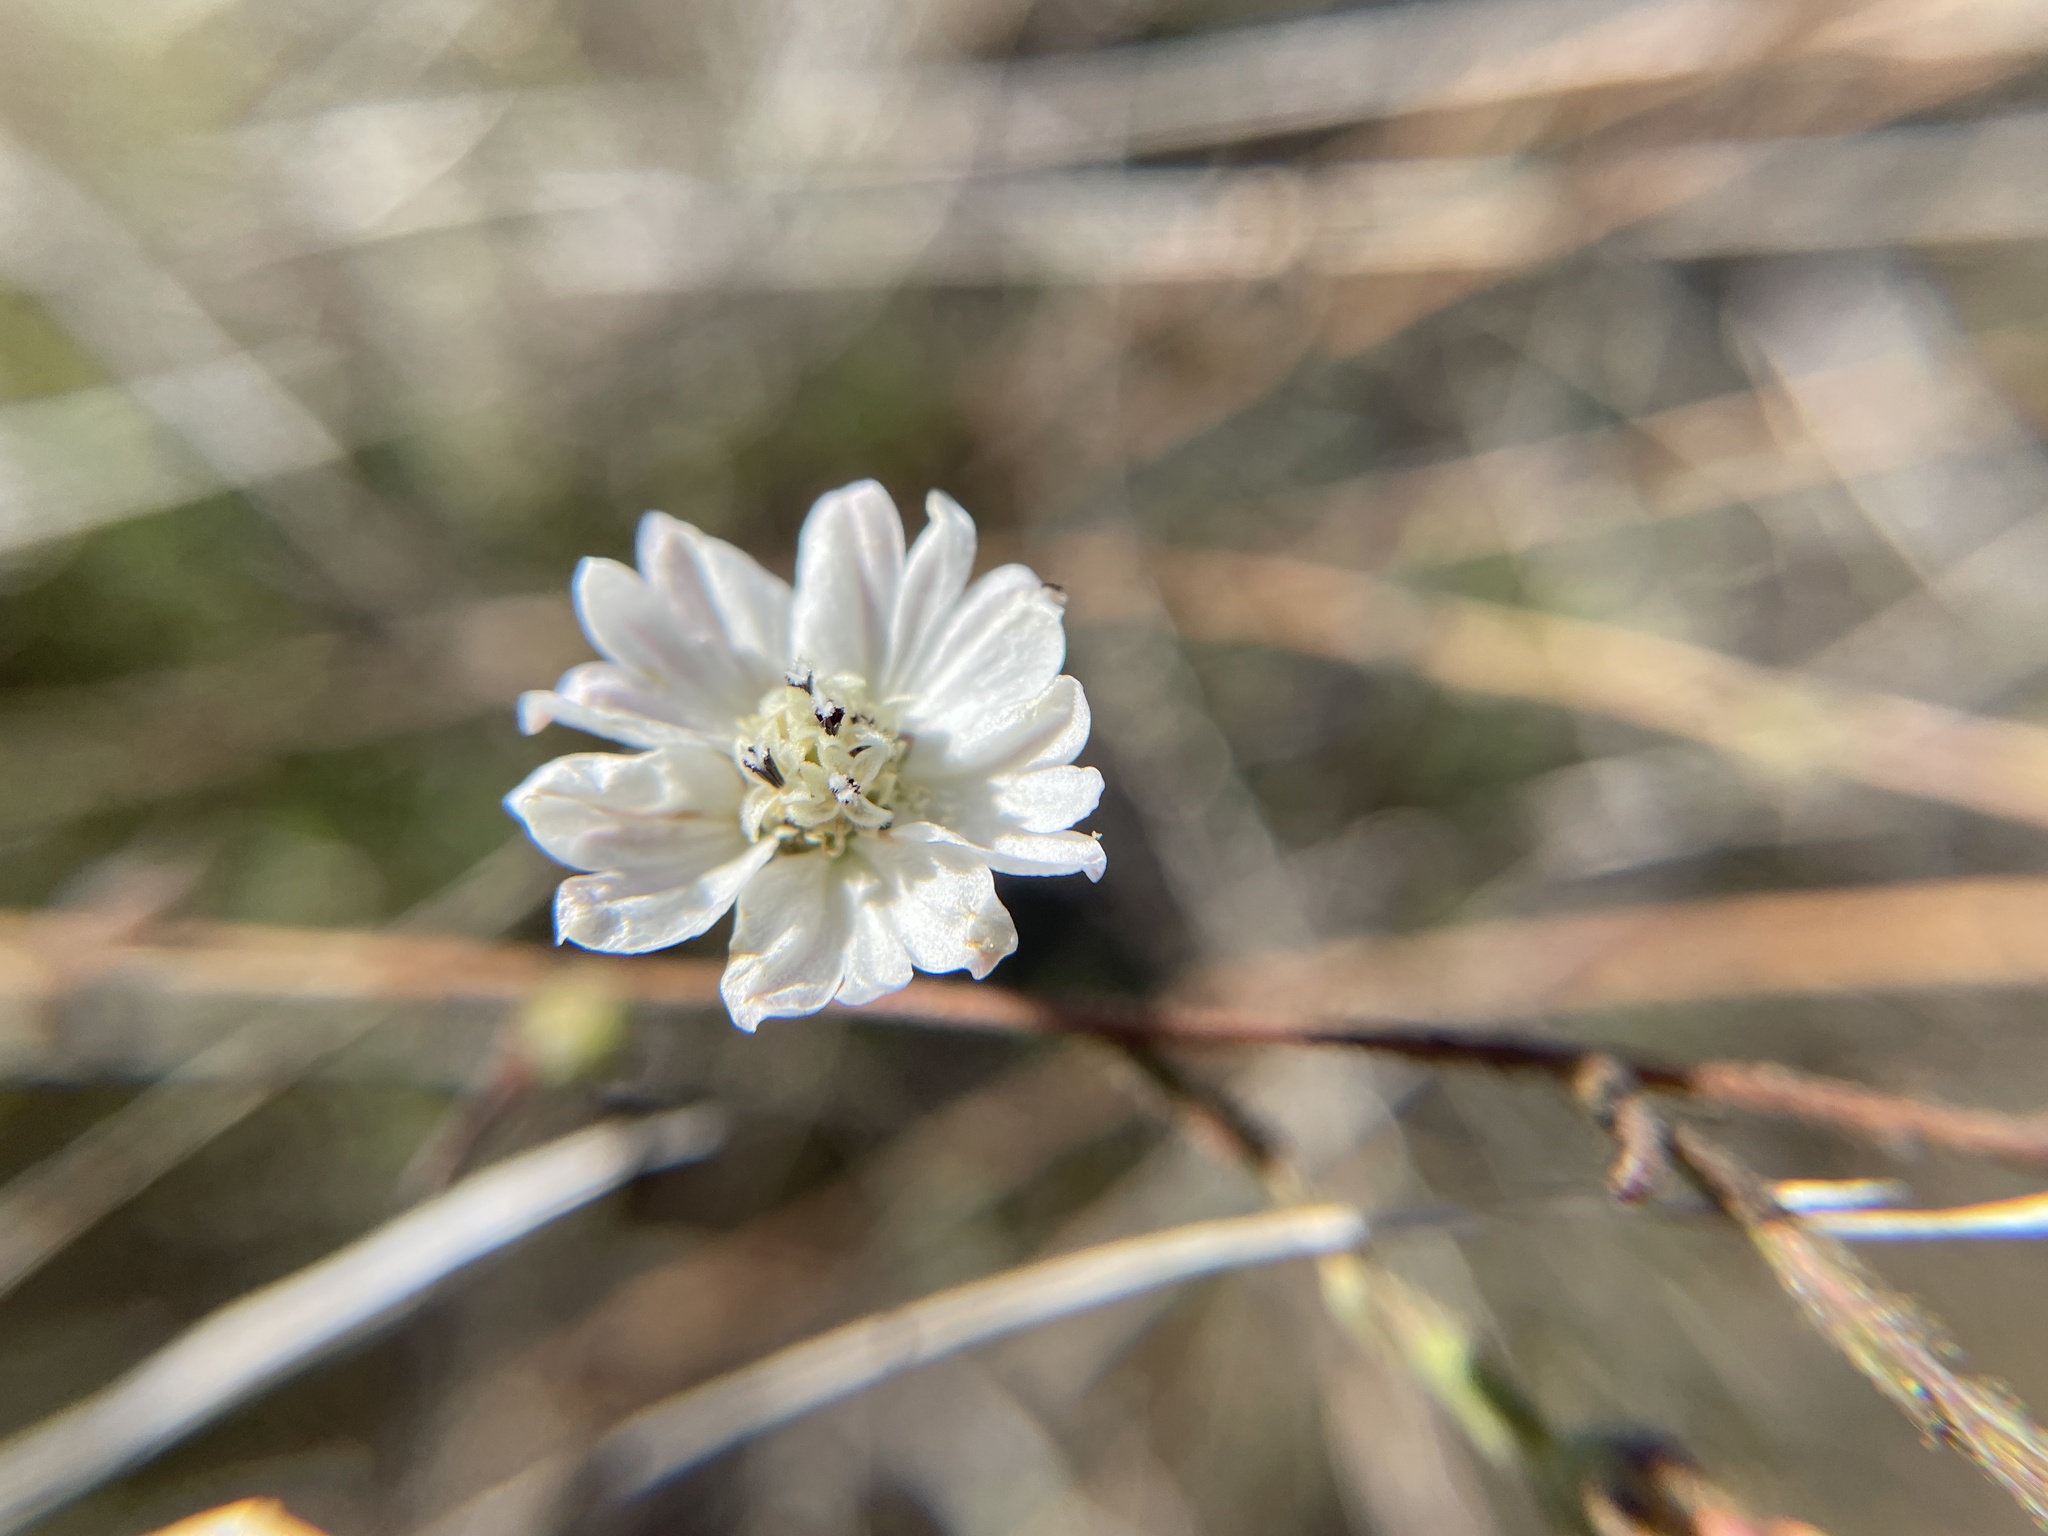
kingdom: Plantae
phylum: Tracheophyta
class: Magnoliopsida
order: Asterales
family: Asteraceae
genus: Hemizonia
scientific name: Hemizonia congesta
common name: Hayfield tarweed
